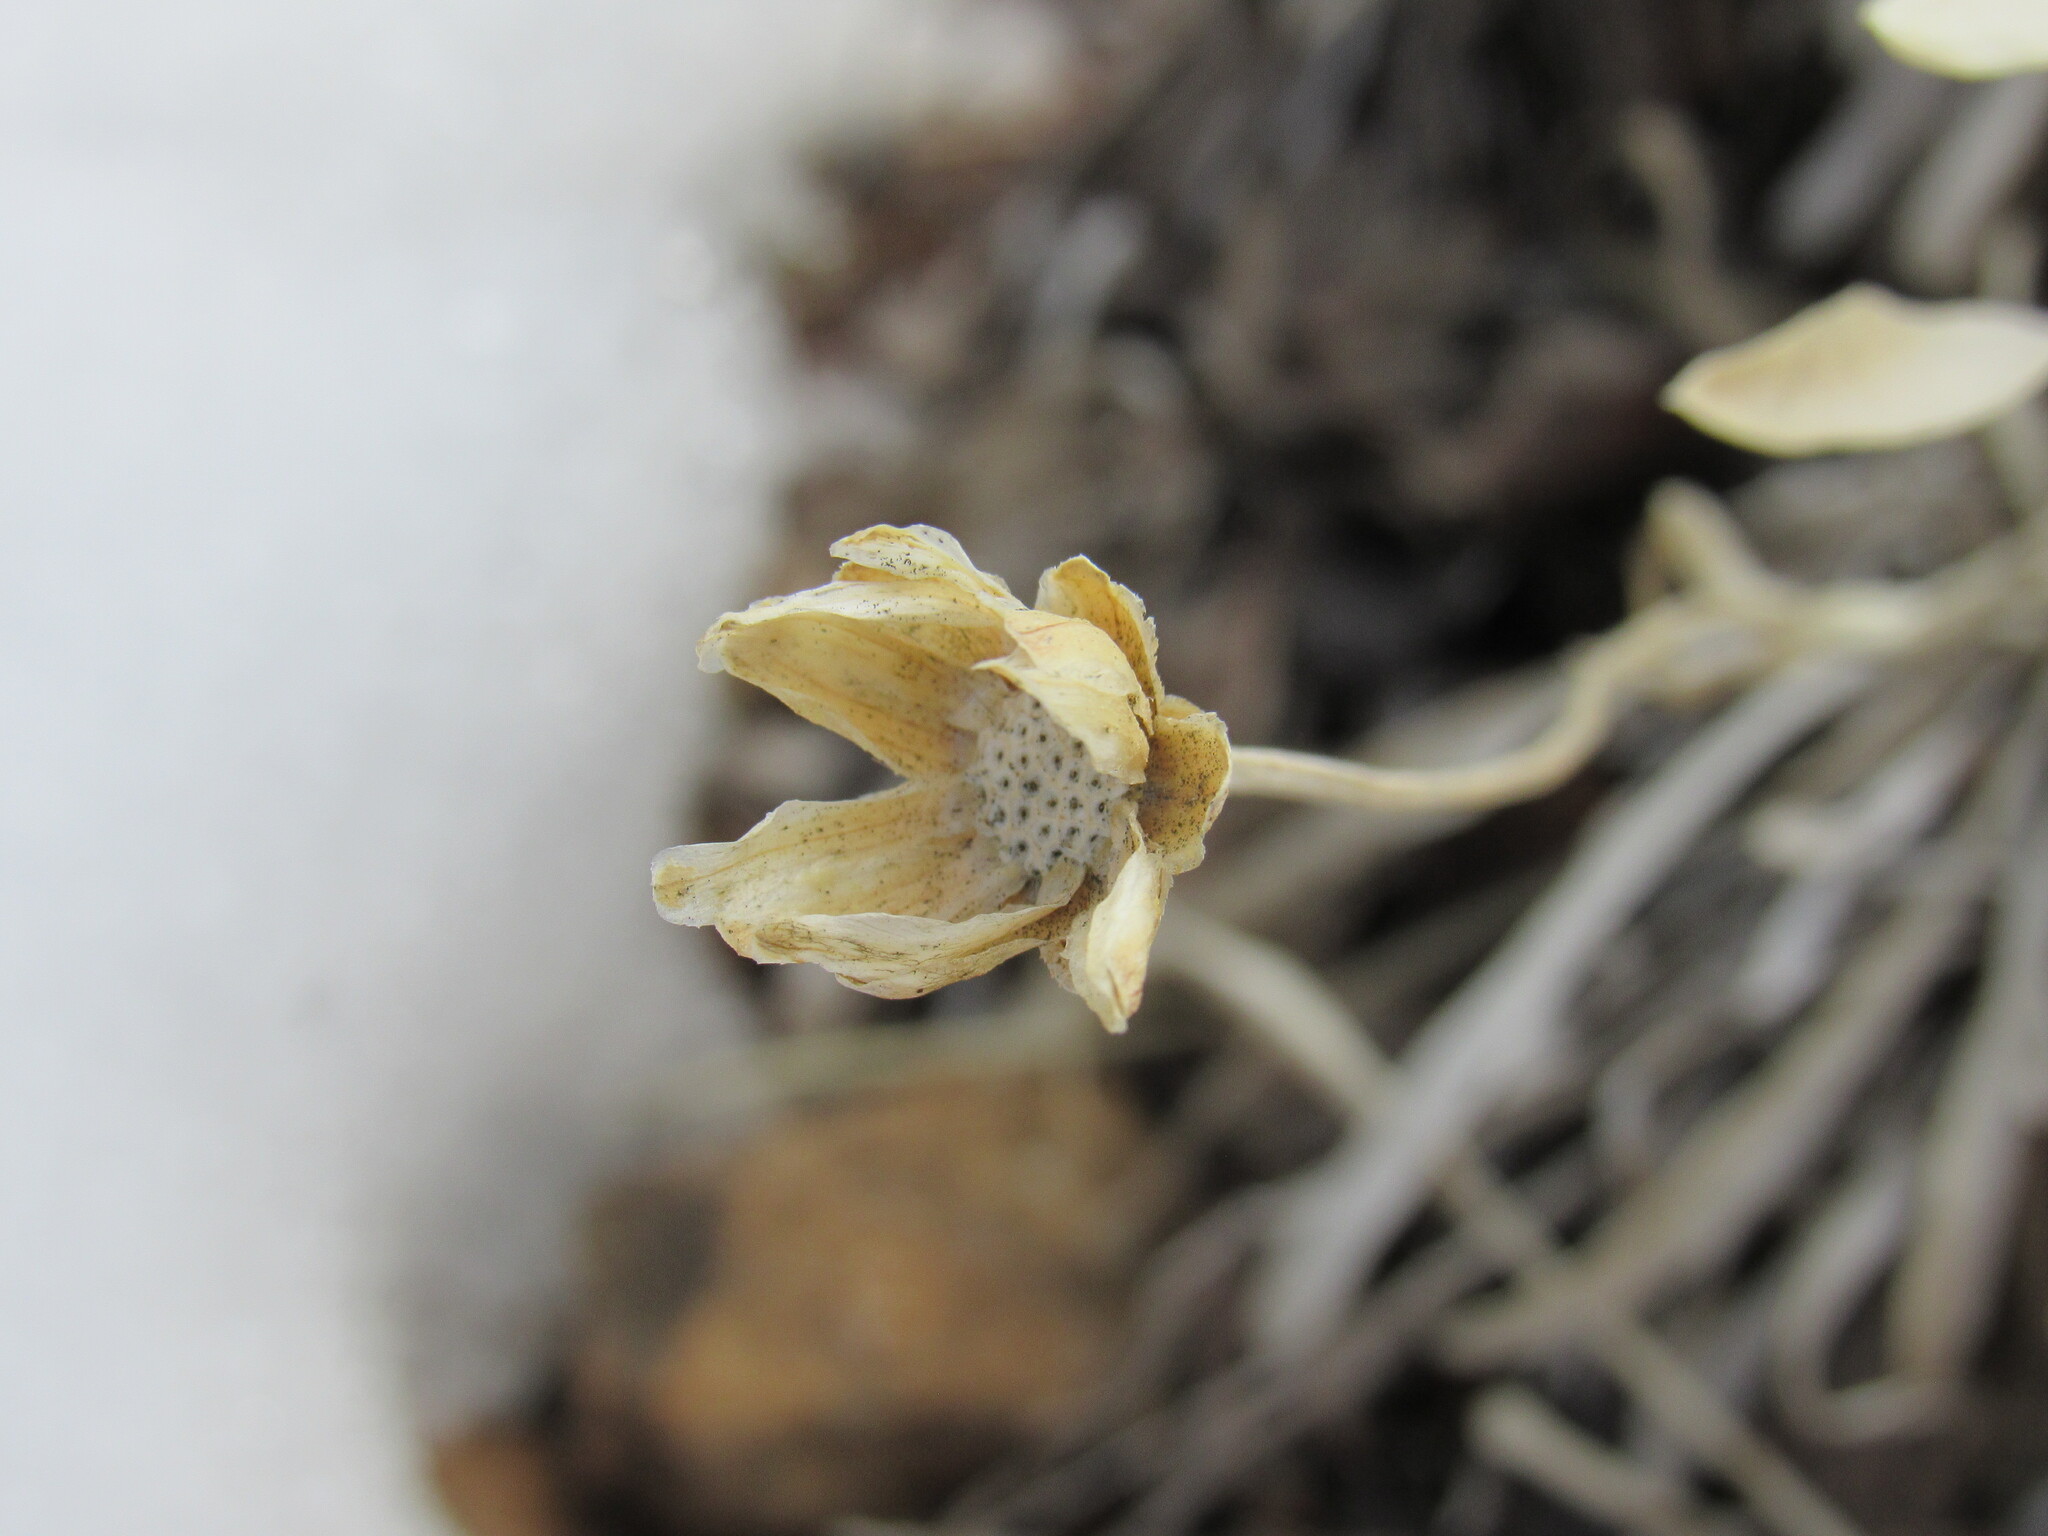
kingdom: Plantae
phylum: Tracheophyta
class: Magnoliopsida
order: Asterales
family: Asteraceae
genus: Stenotus
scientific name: Stenotus armerioides
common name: Thrifty goldenweed
